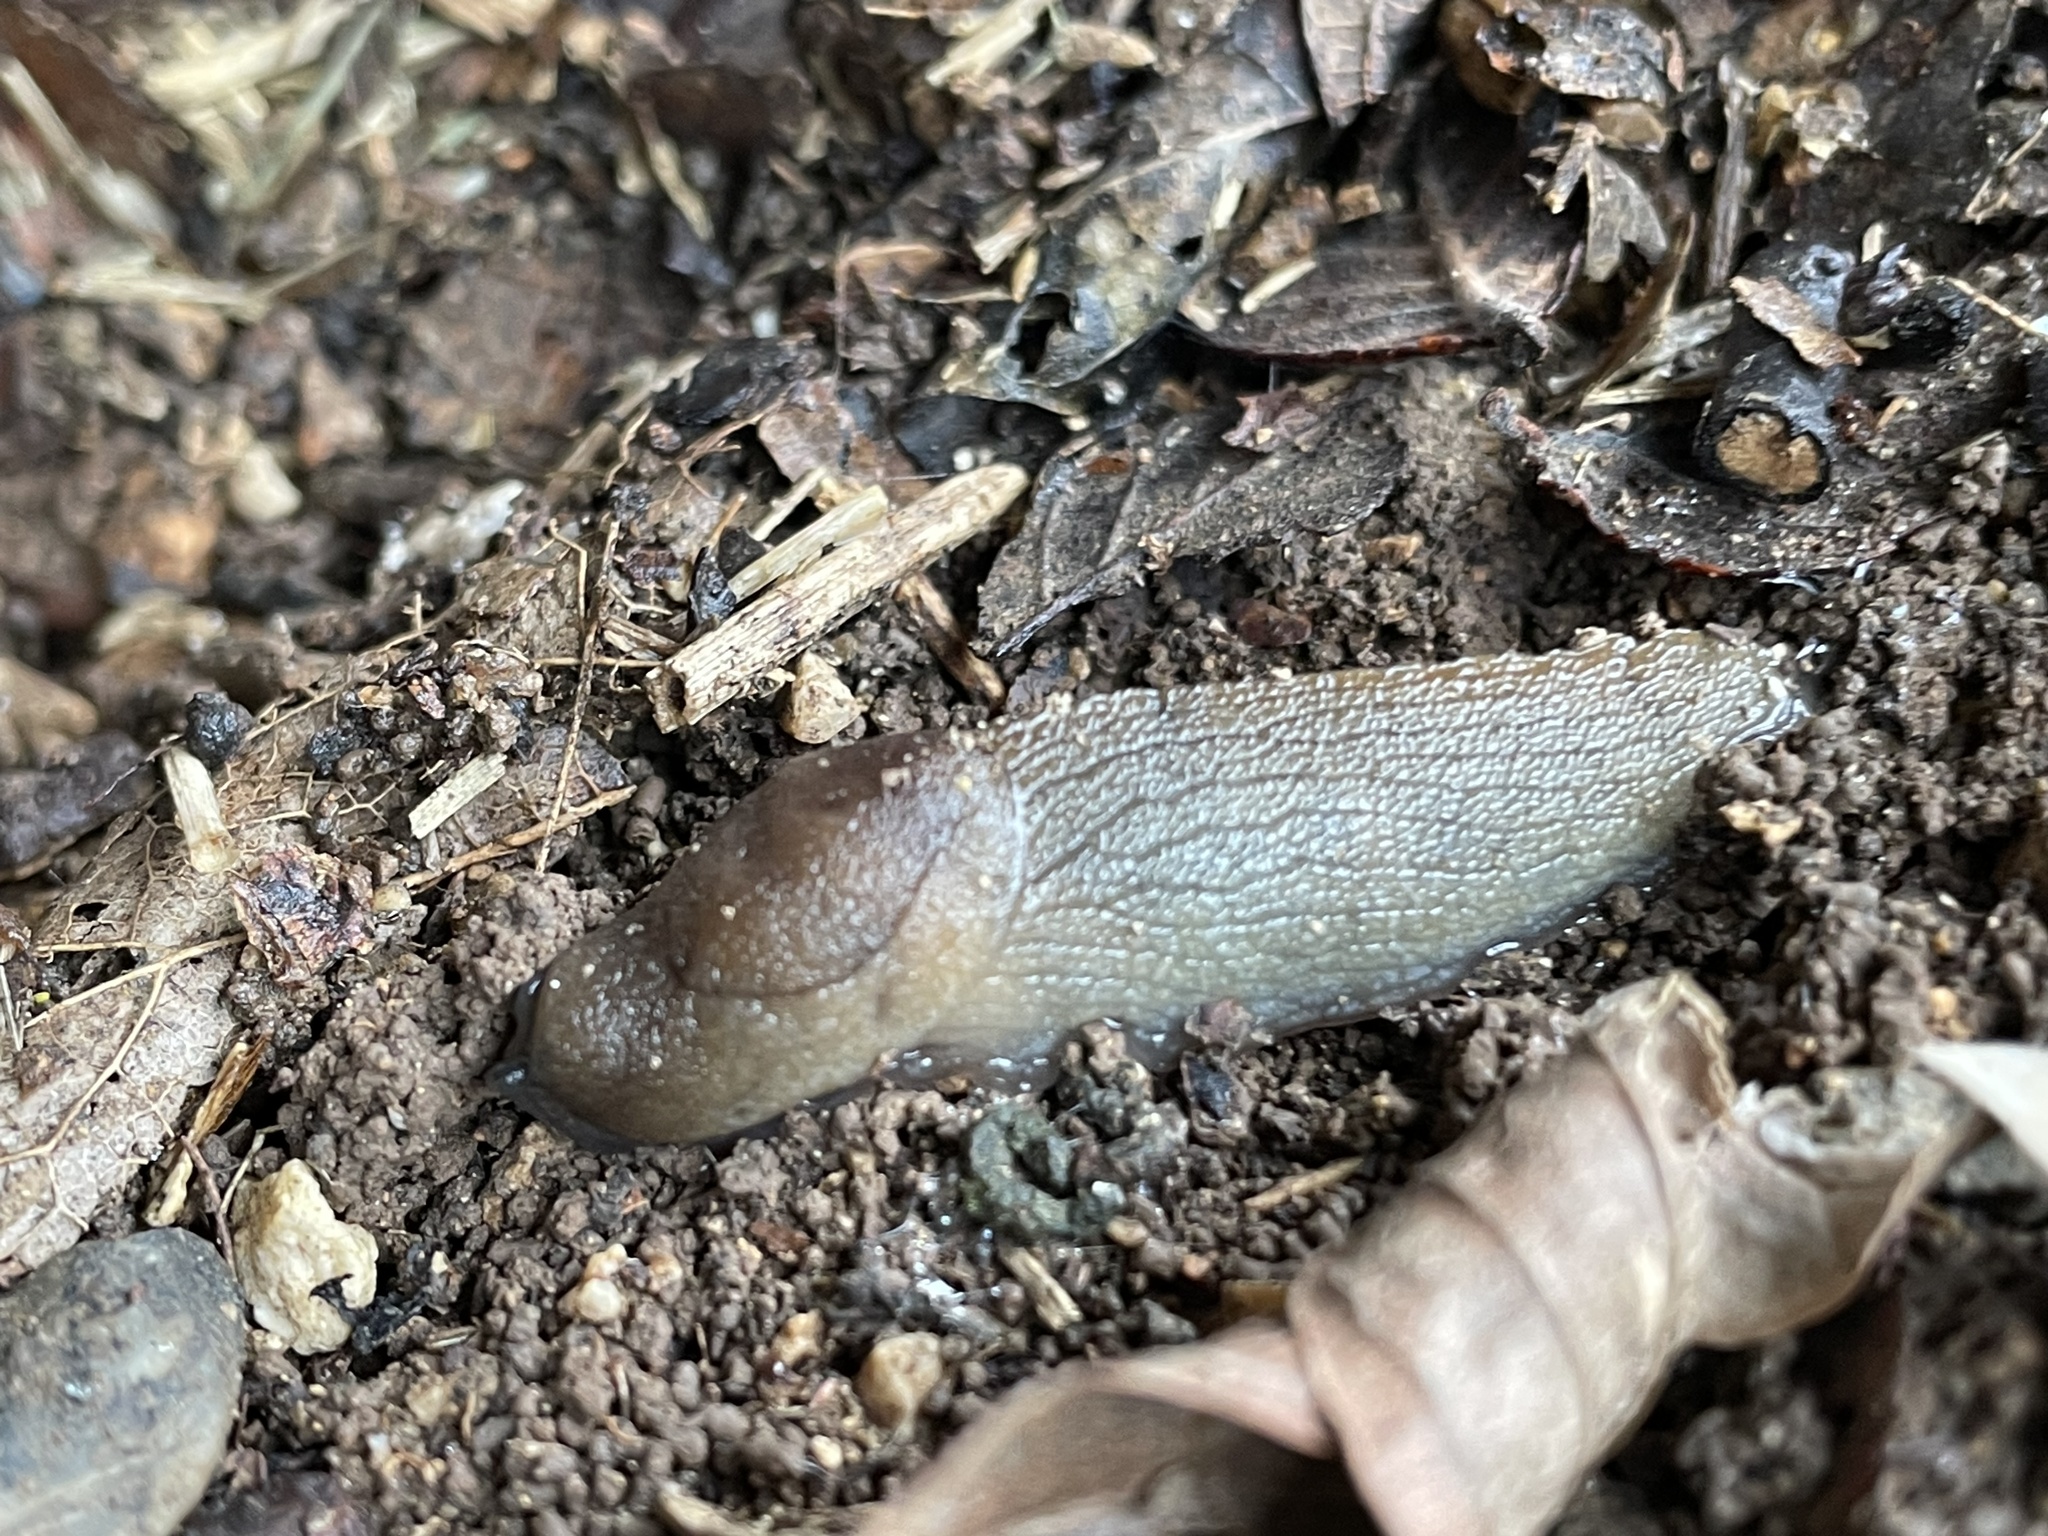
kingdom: Animalia
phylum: Mollusca
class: Gastropoda
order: Stylommatophora
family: Milacidae
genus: Milax
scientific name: Milax gagates
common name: Greenhouse slug
